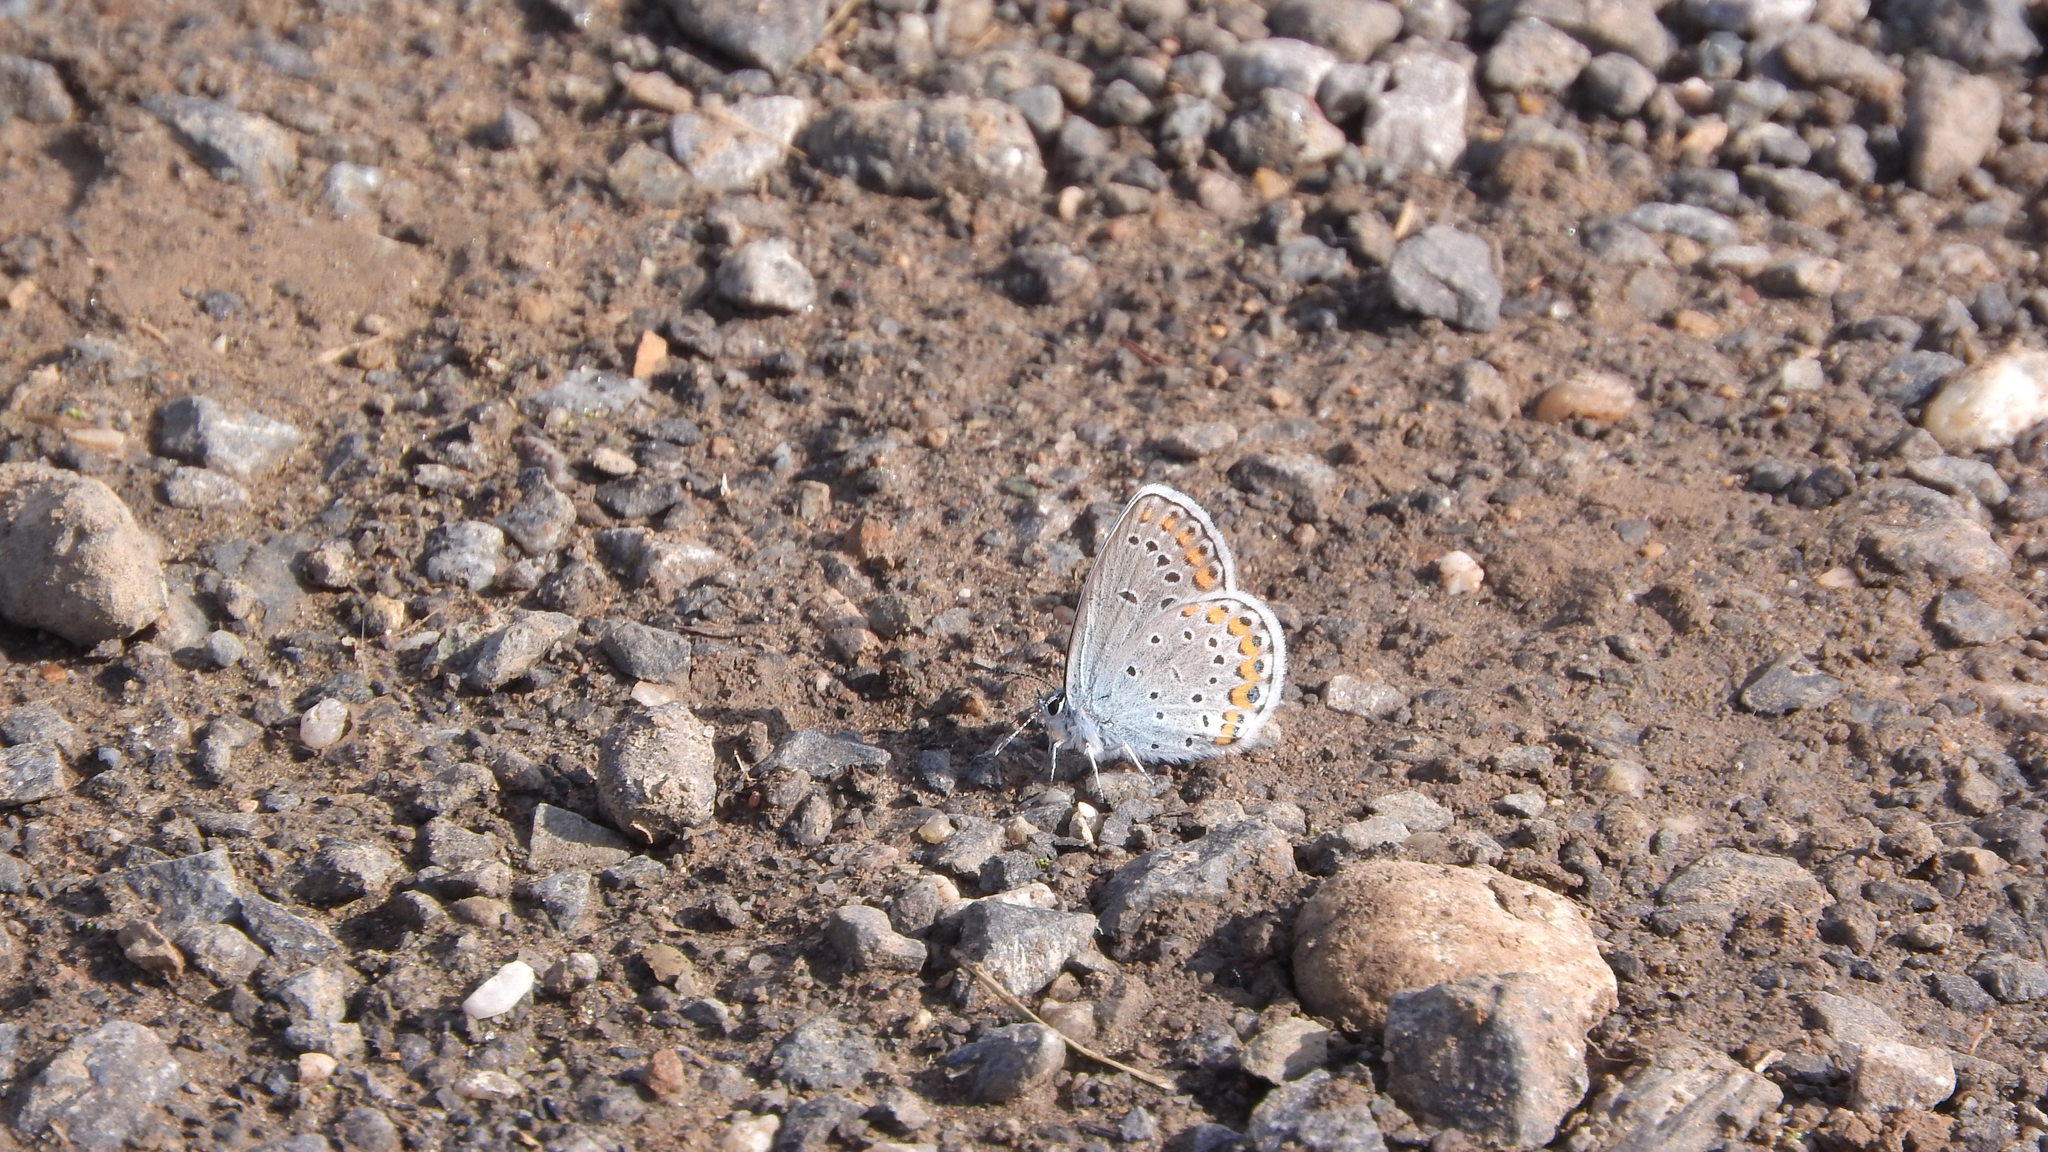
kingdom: Animalia
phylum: Arthropoda
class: Insecta
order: Lepidoptera
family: Lycaenidae
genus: Plebejus
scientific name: Plebejus argyrognomon
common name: Reverdin's blue
